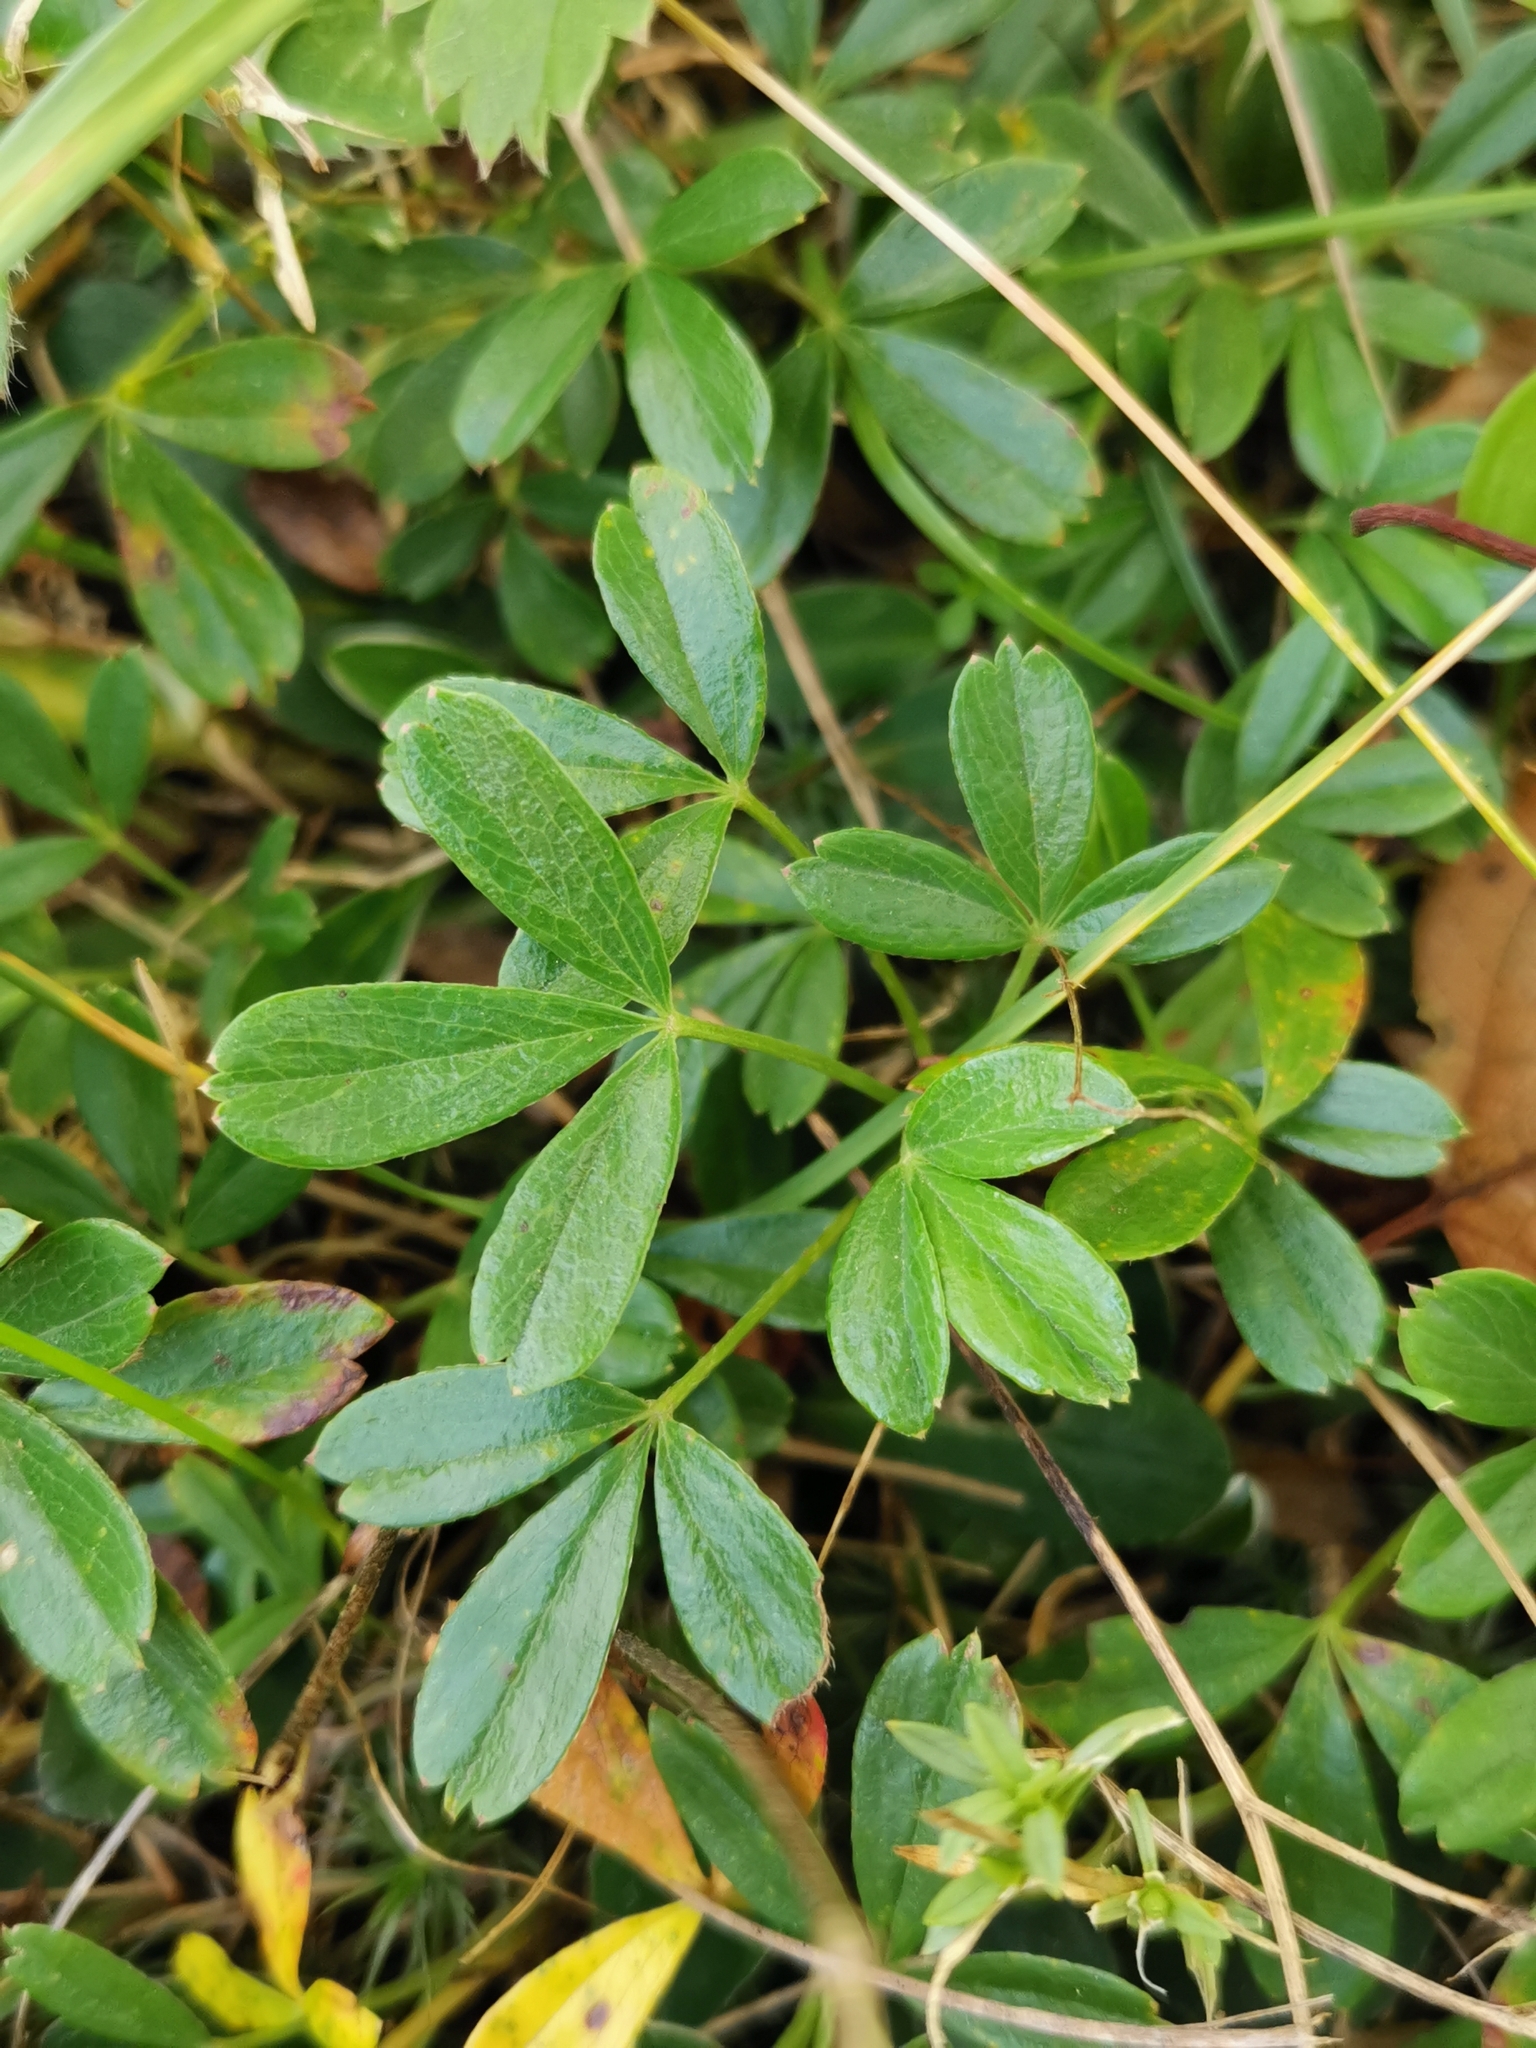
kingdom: Plantae
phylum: Tracheophyta
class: Magnoliopsida
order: Rosales
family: Rosaceae
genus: Sibbaldia
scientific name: Sibbaldia tridentata
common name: Three-toothed cinquefoil
